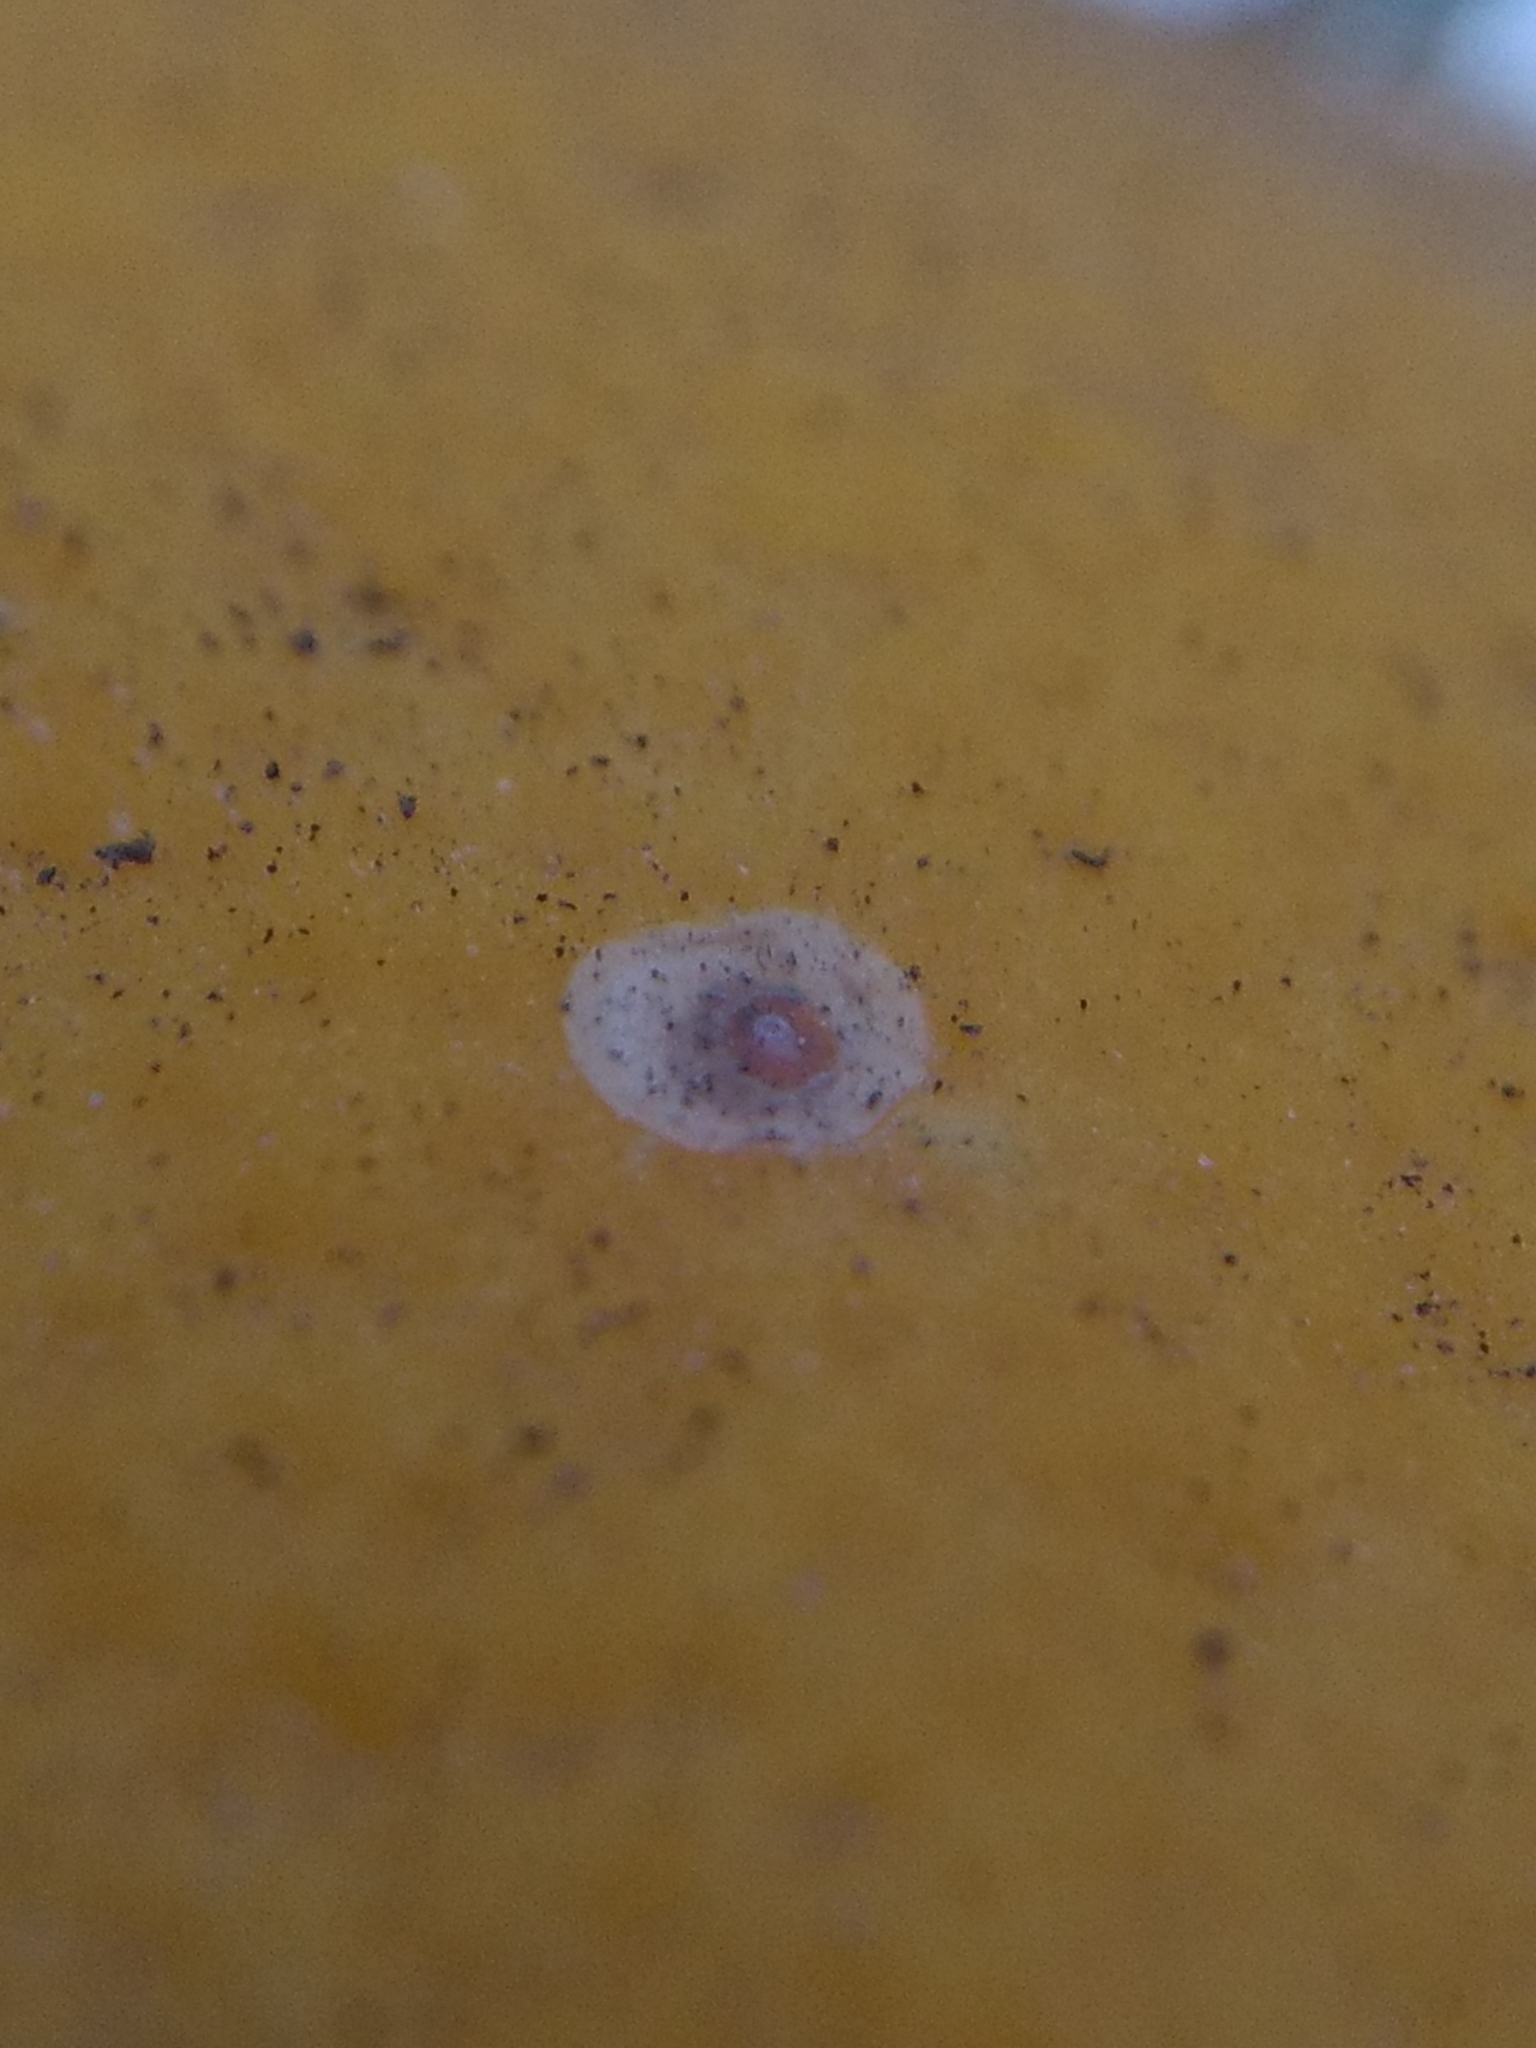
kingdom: Animalia
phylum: Arthropoda
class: Insecta
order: Hemiptera
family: Diaspididae
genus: Aonidiella
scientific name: Aonidiella aurantii
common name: California red scale
